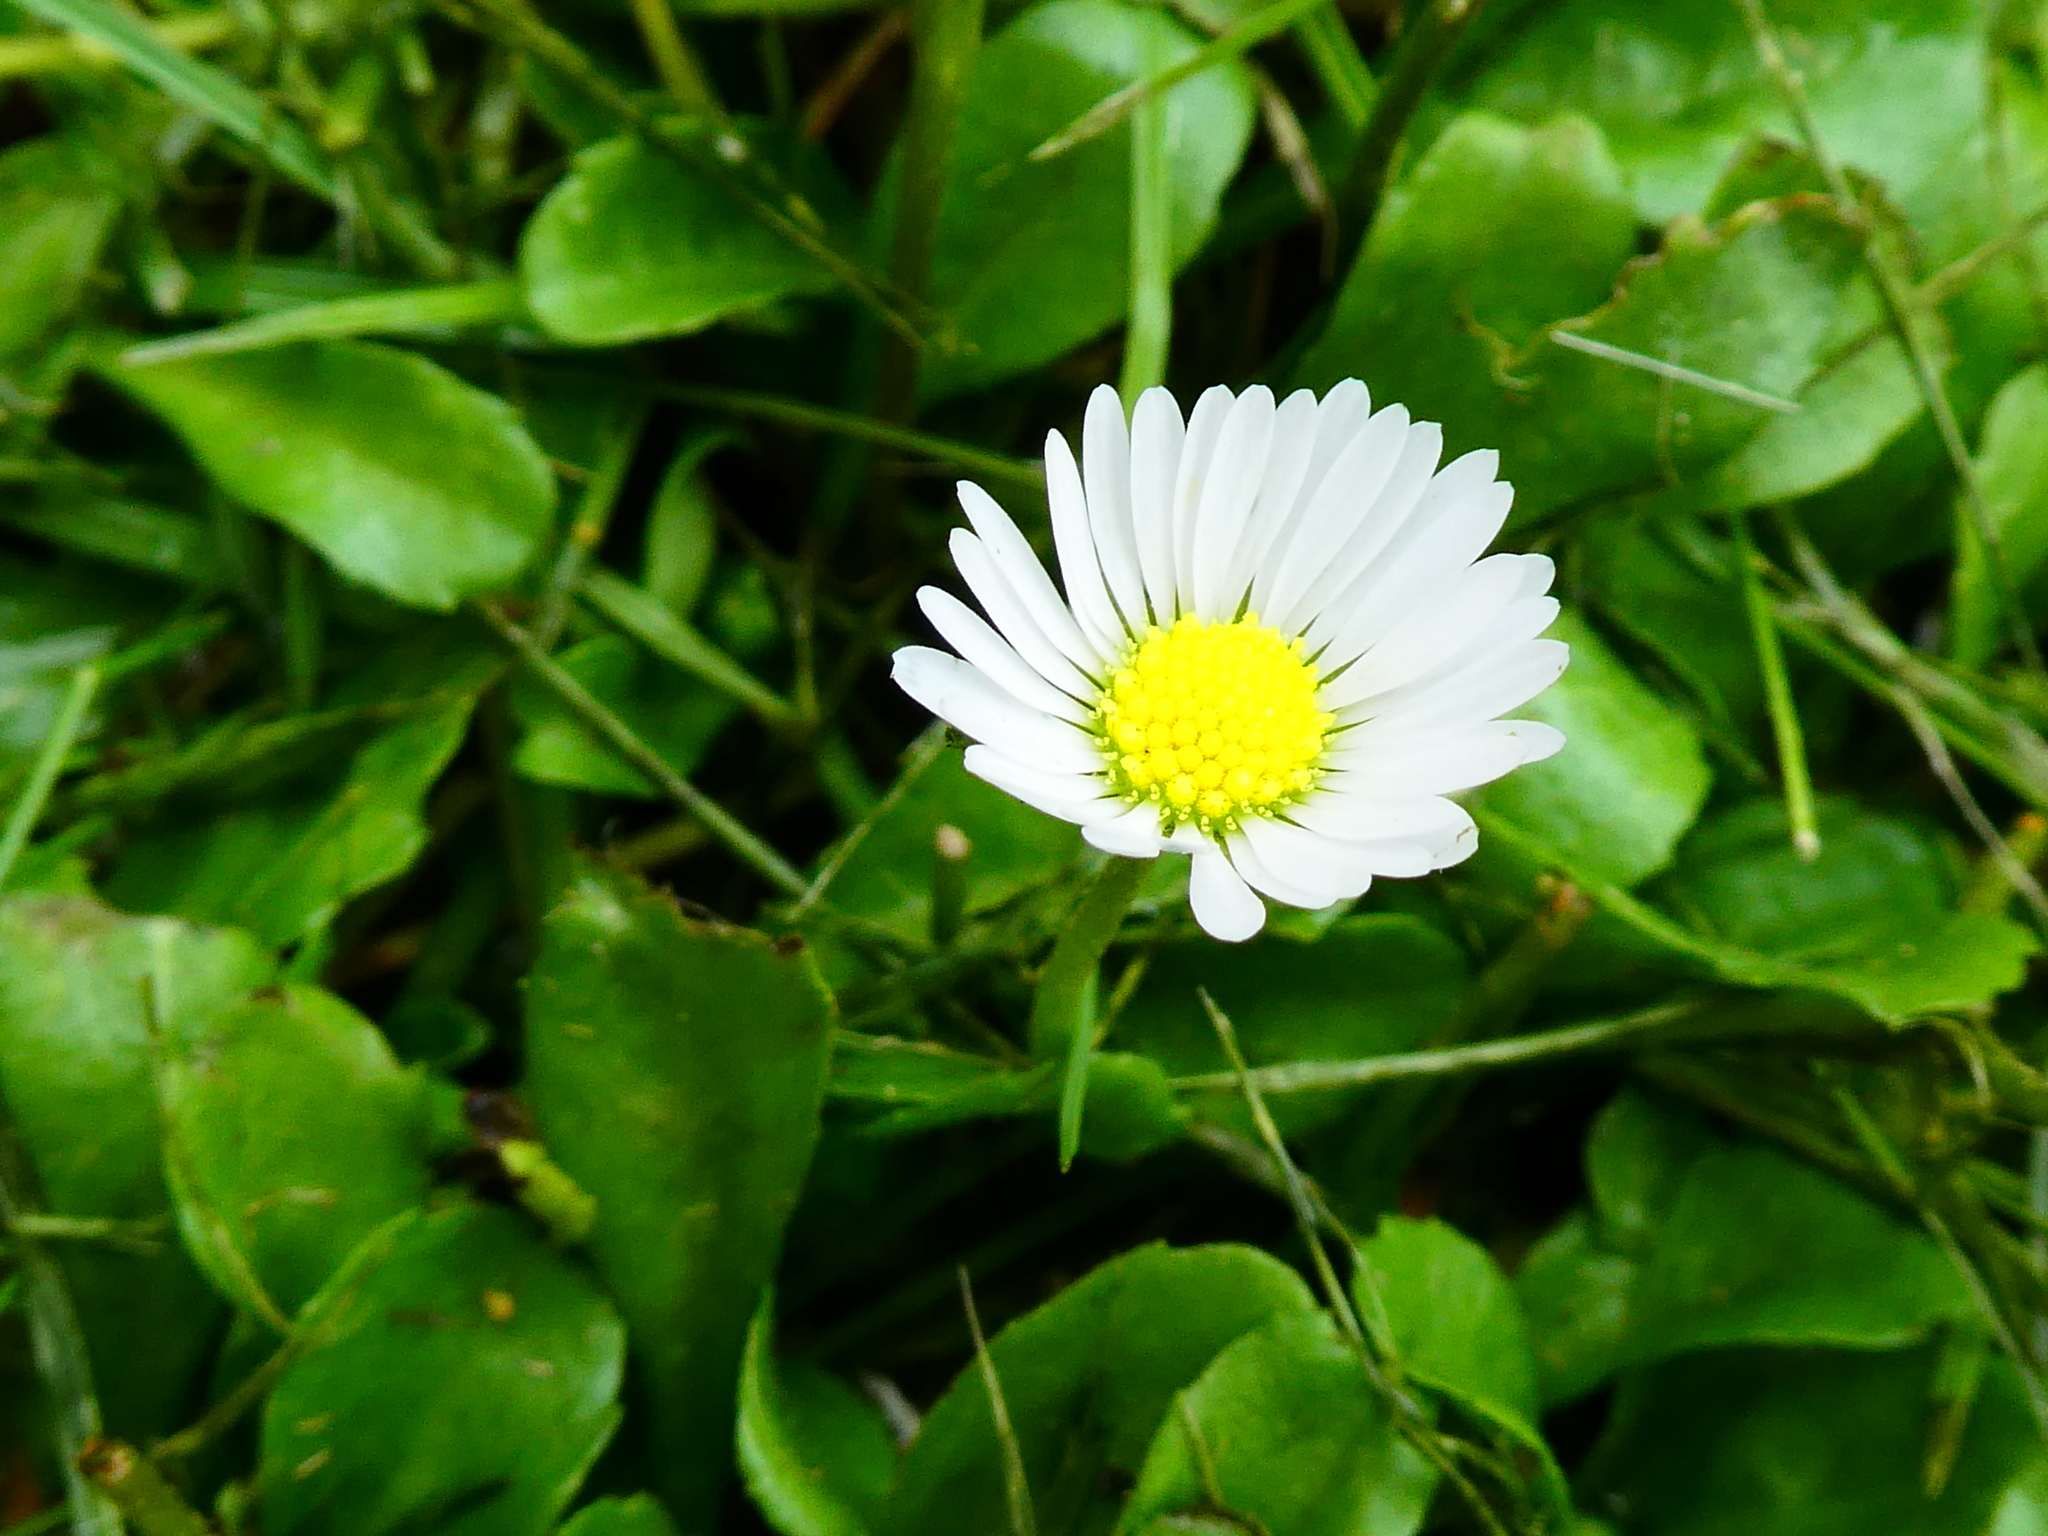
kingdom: Plantae
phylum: Tracheophyta
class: Magnoliopsida
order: Asterales
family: Asteraceae
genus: Bellis
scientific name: Bellis perennis
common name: Lawndaisy
